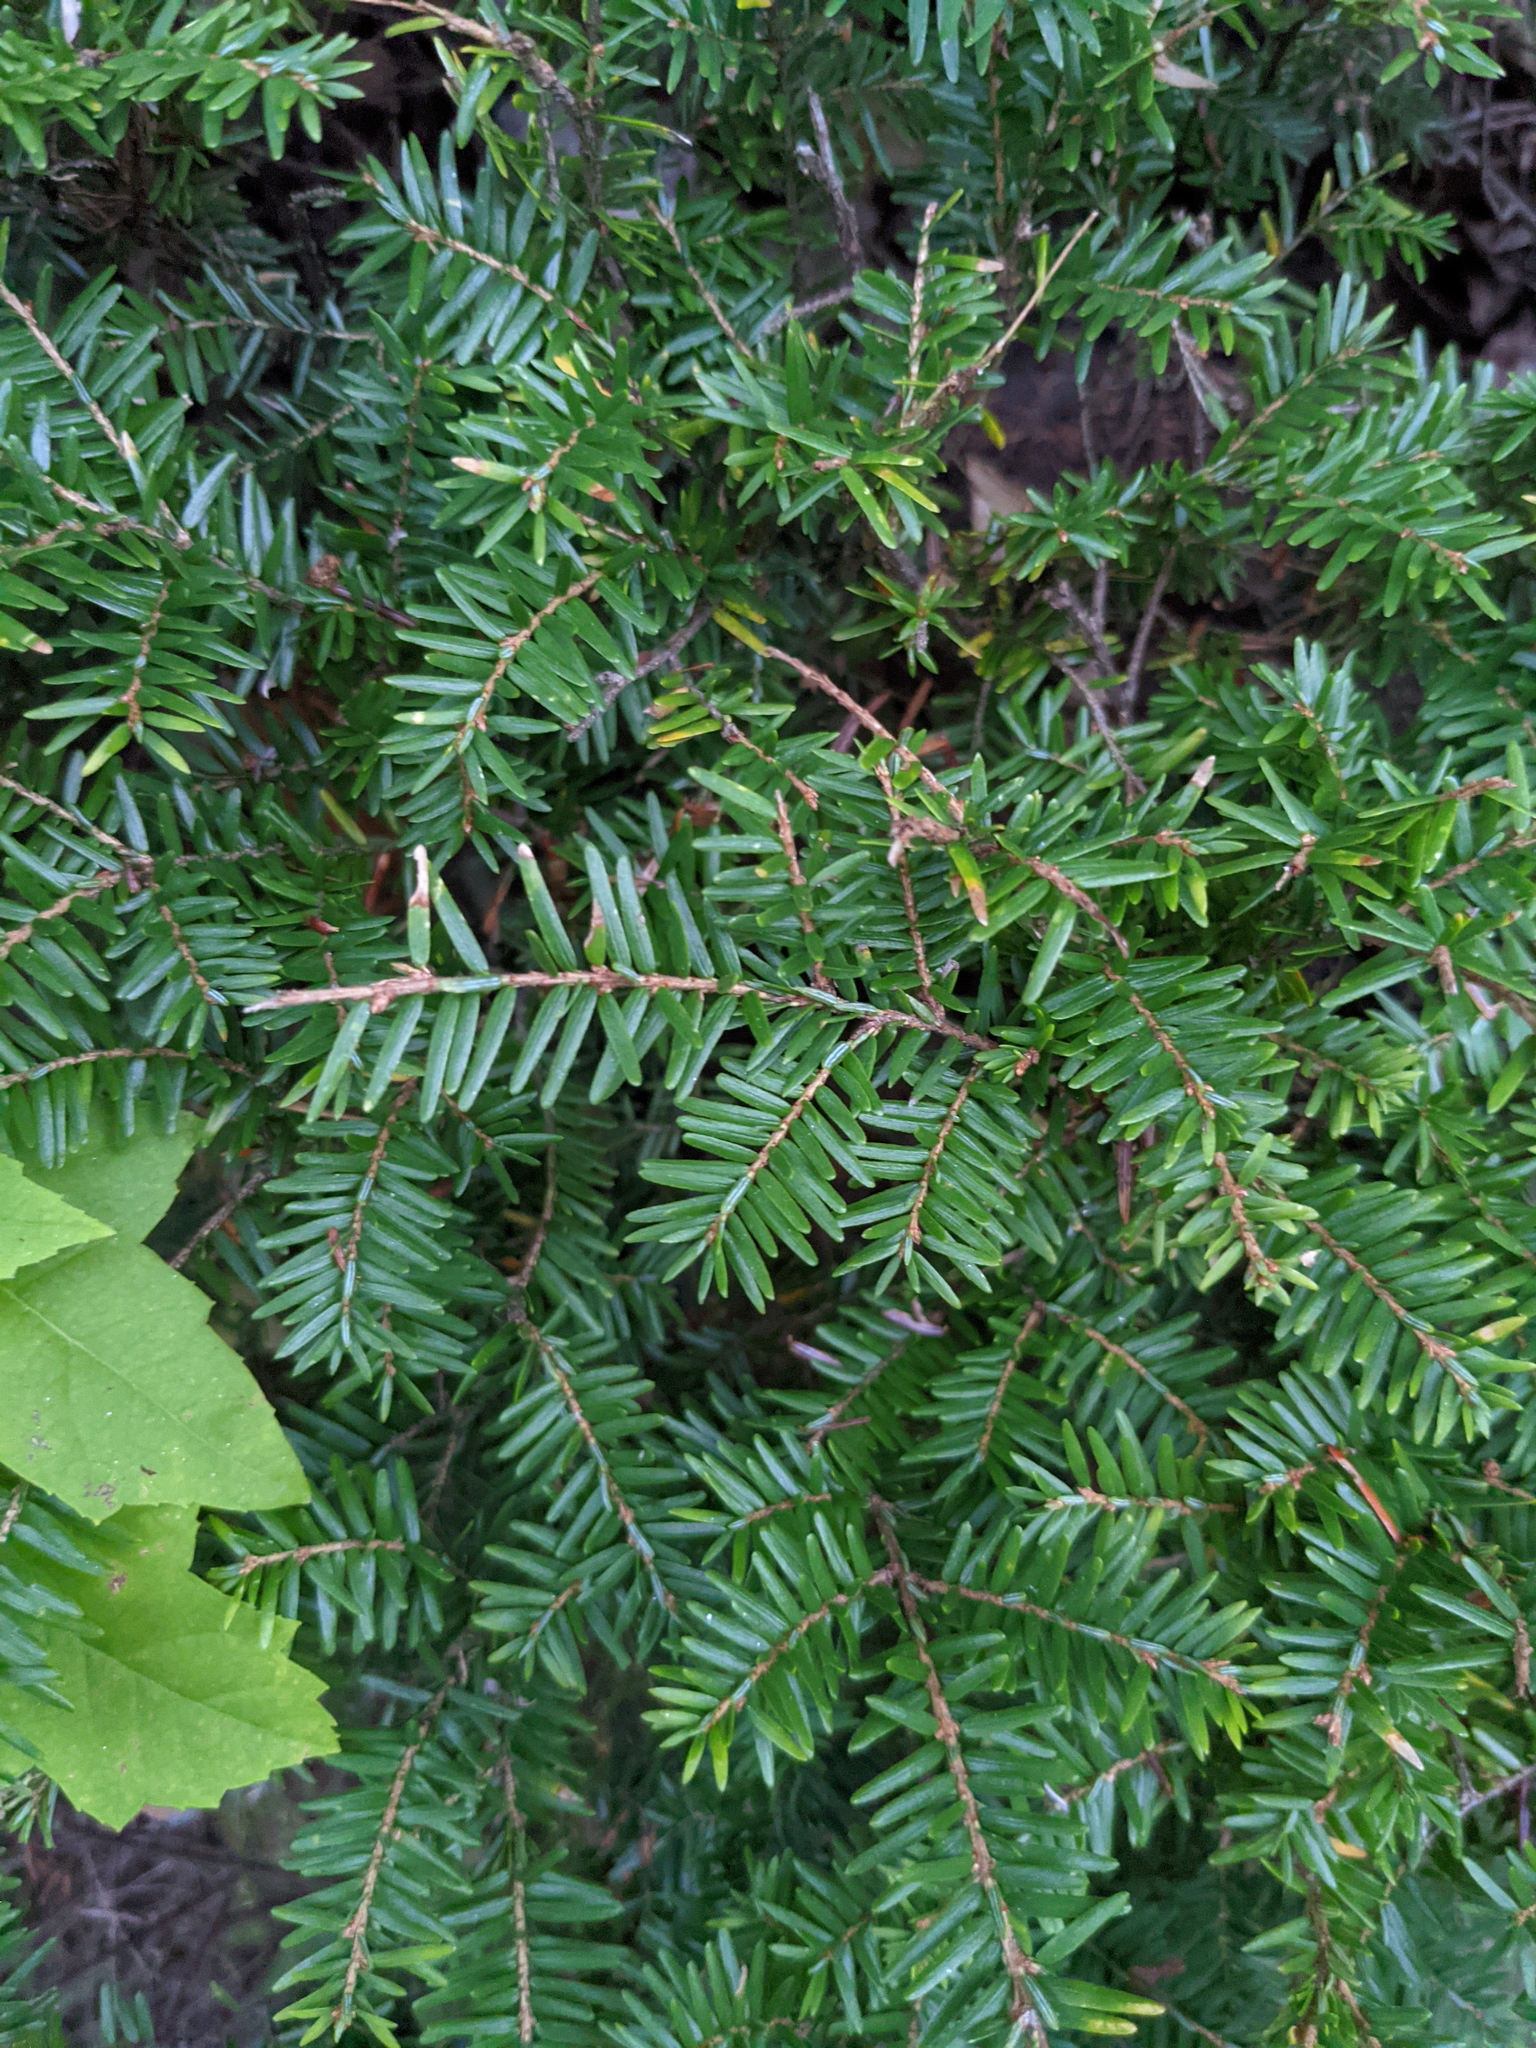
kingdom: Plantae
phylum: Tracheophyta
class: Pinopsida
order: Pinales
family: Pinaceae
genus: Tsuga
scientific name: Tsuga canadensis
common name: Eastern hemlock
